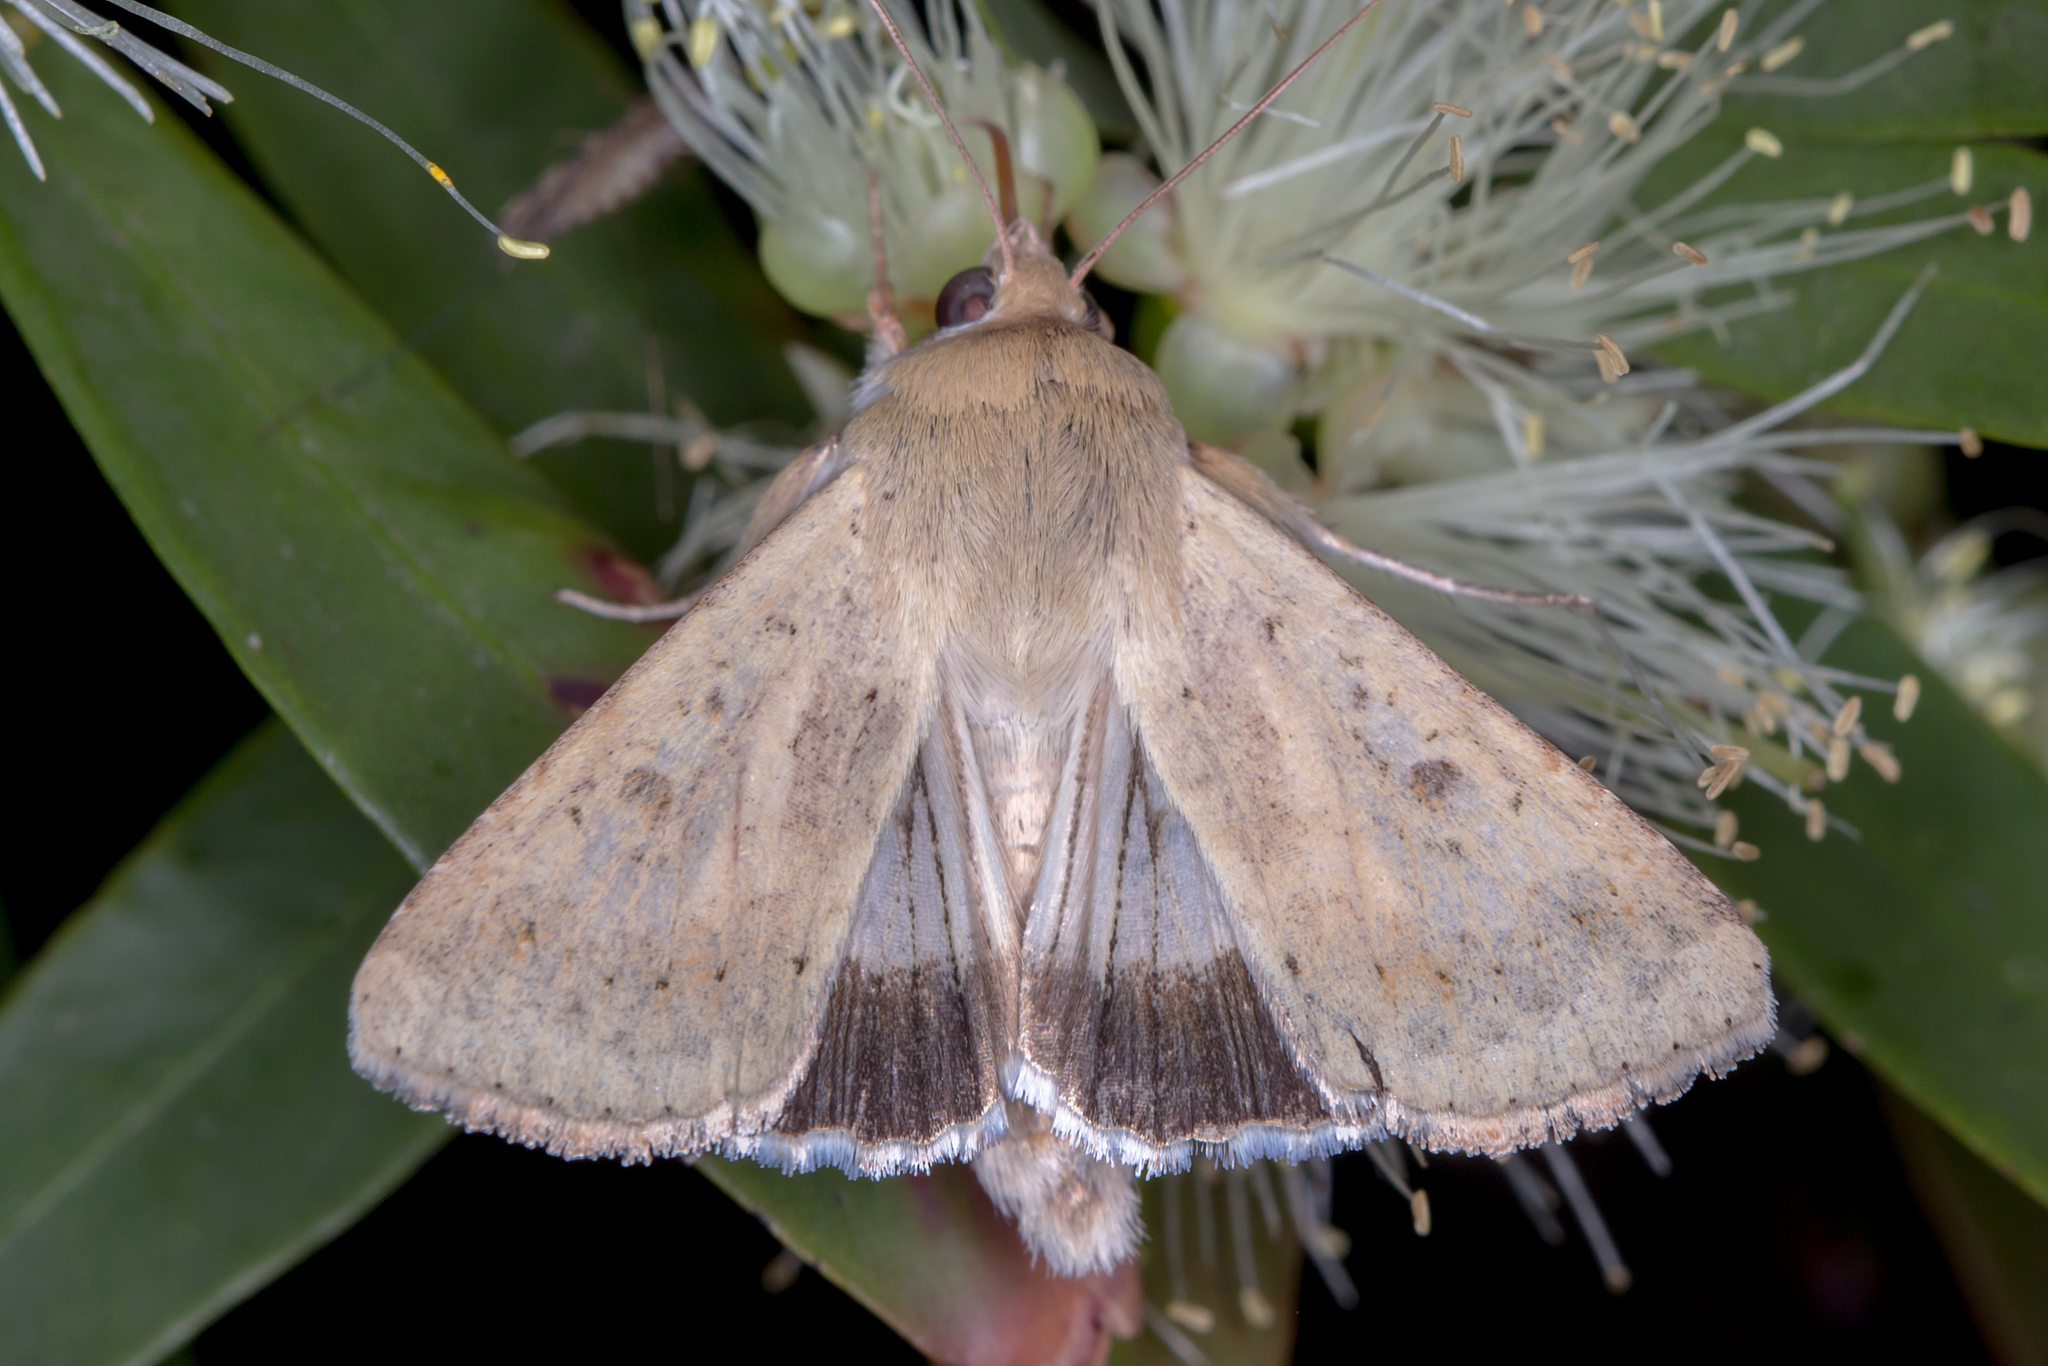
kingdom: Animalia
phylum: Arthropoda
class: Insecta
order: Lepidoptera
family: Noctuidae
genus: Helicoverpa
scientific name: Helicoverpa punctigera
